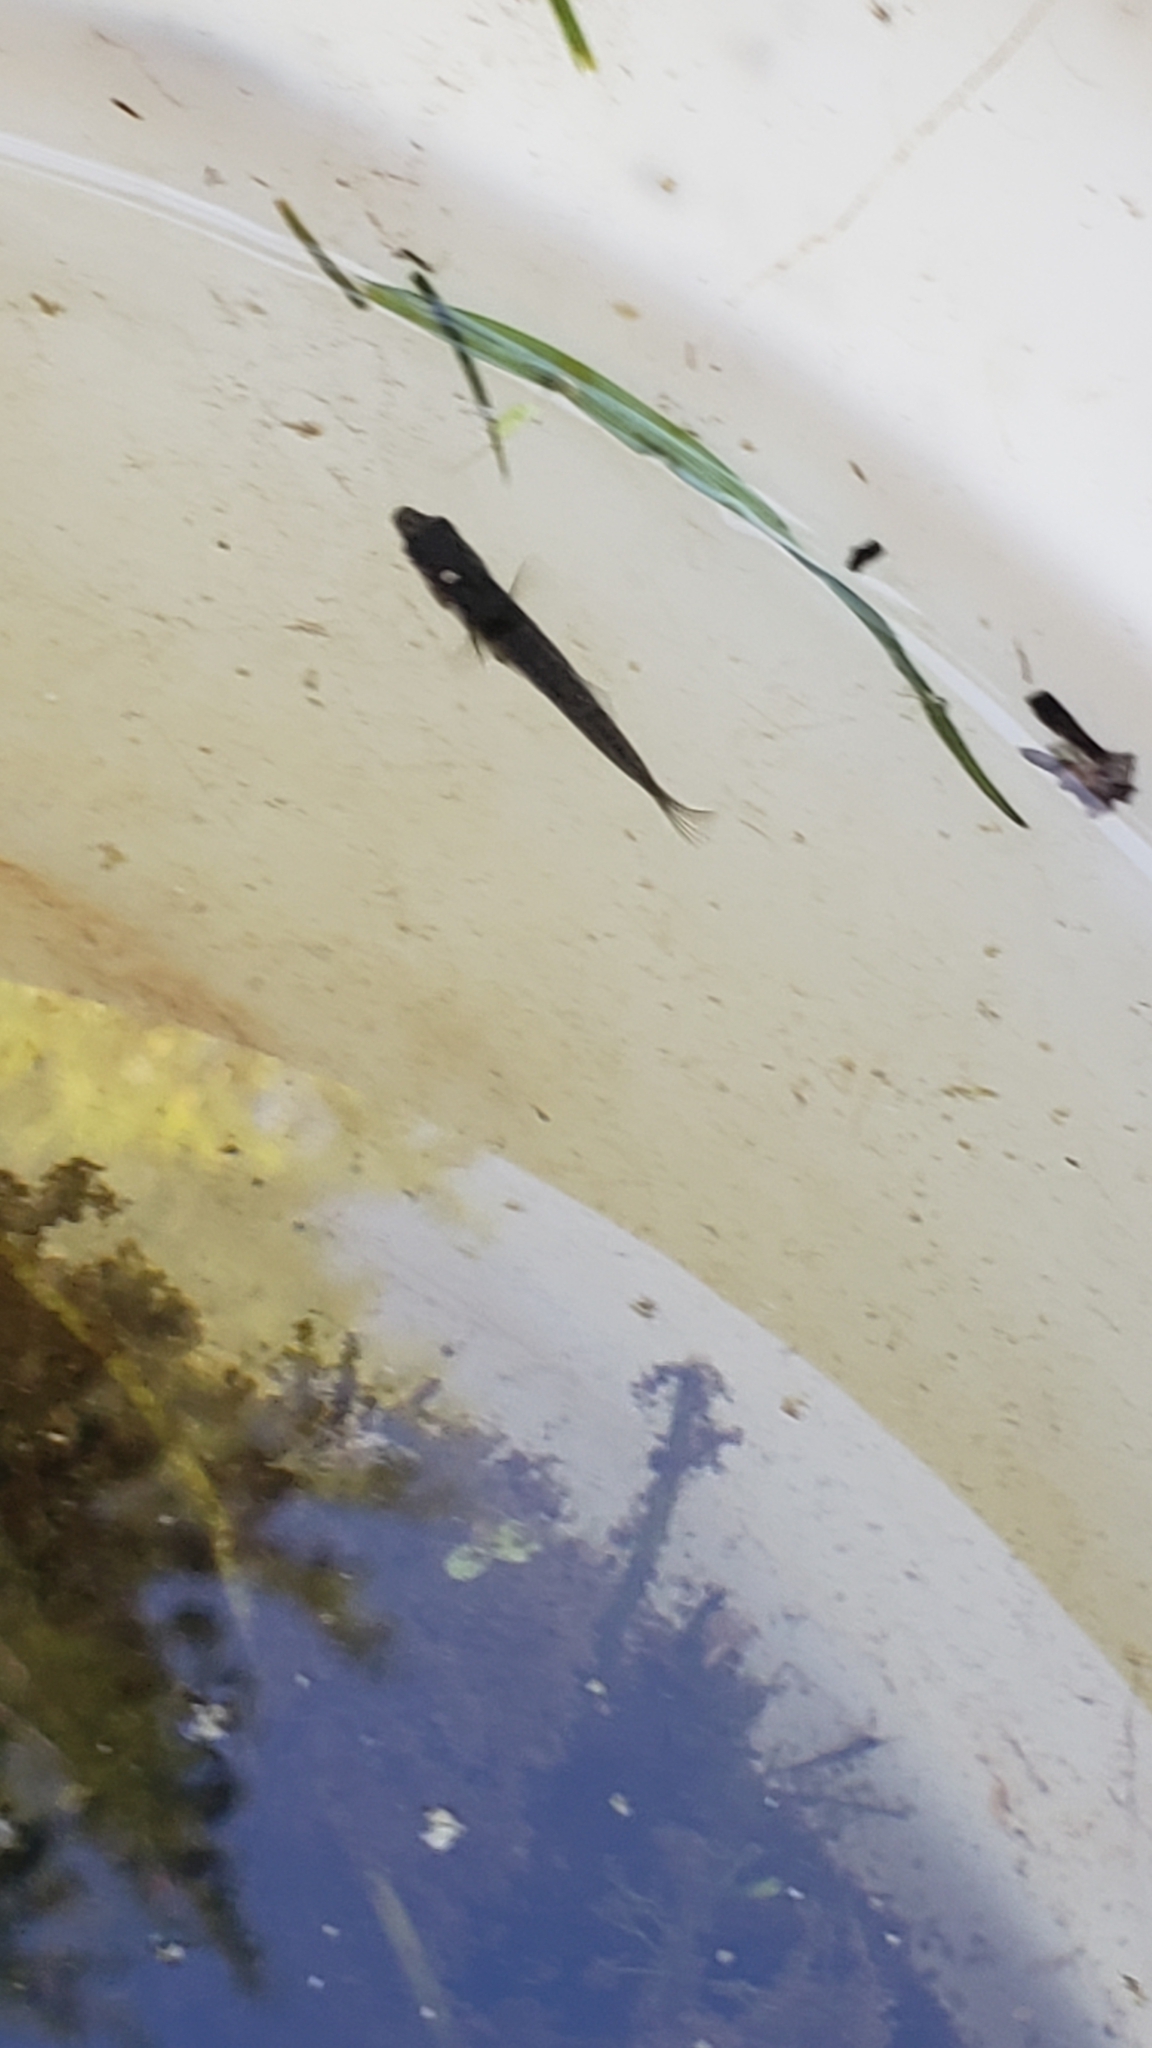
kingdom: Animalia
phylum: Chordata
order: Gasterosteiformes
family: Gasterosteidae
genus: Gasterosteus
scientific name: Gasterosteus aculeatus
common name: Three-spined stickleback
